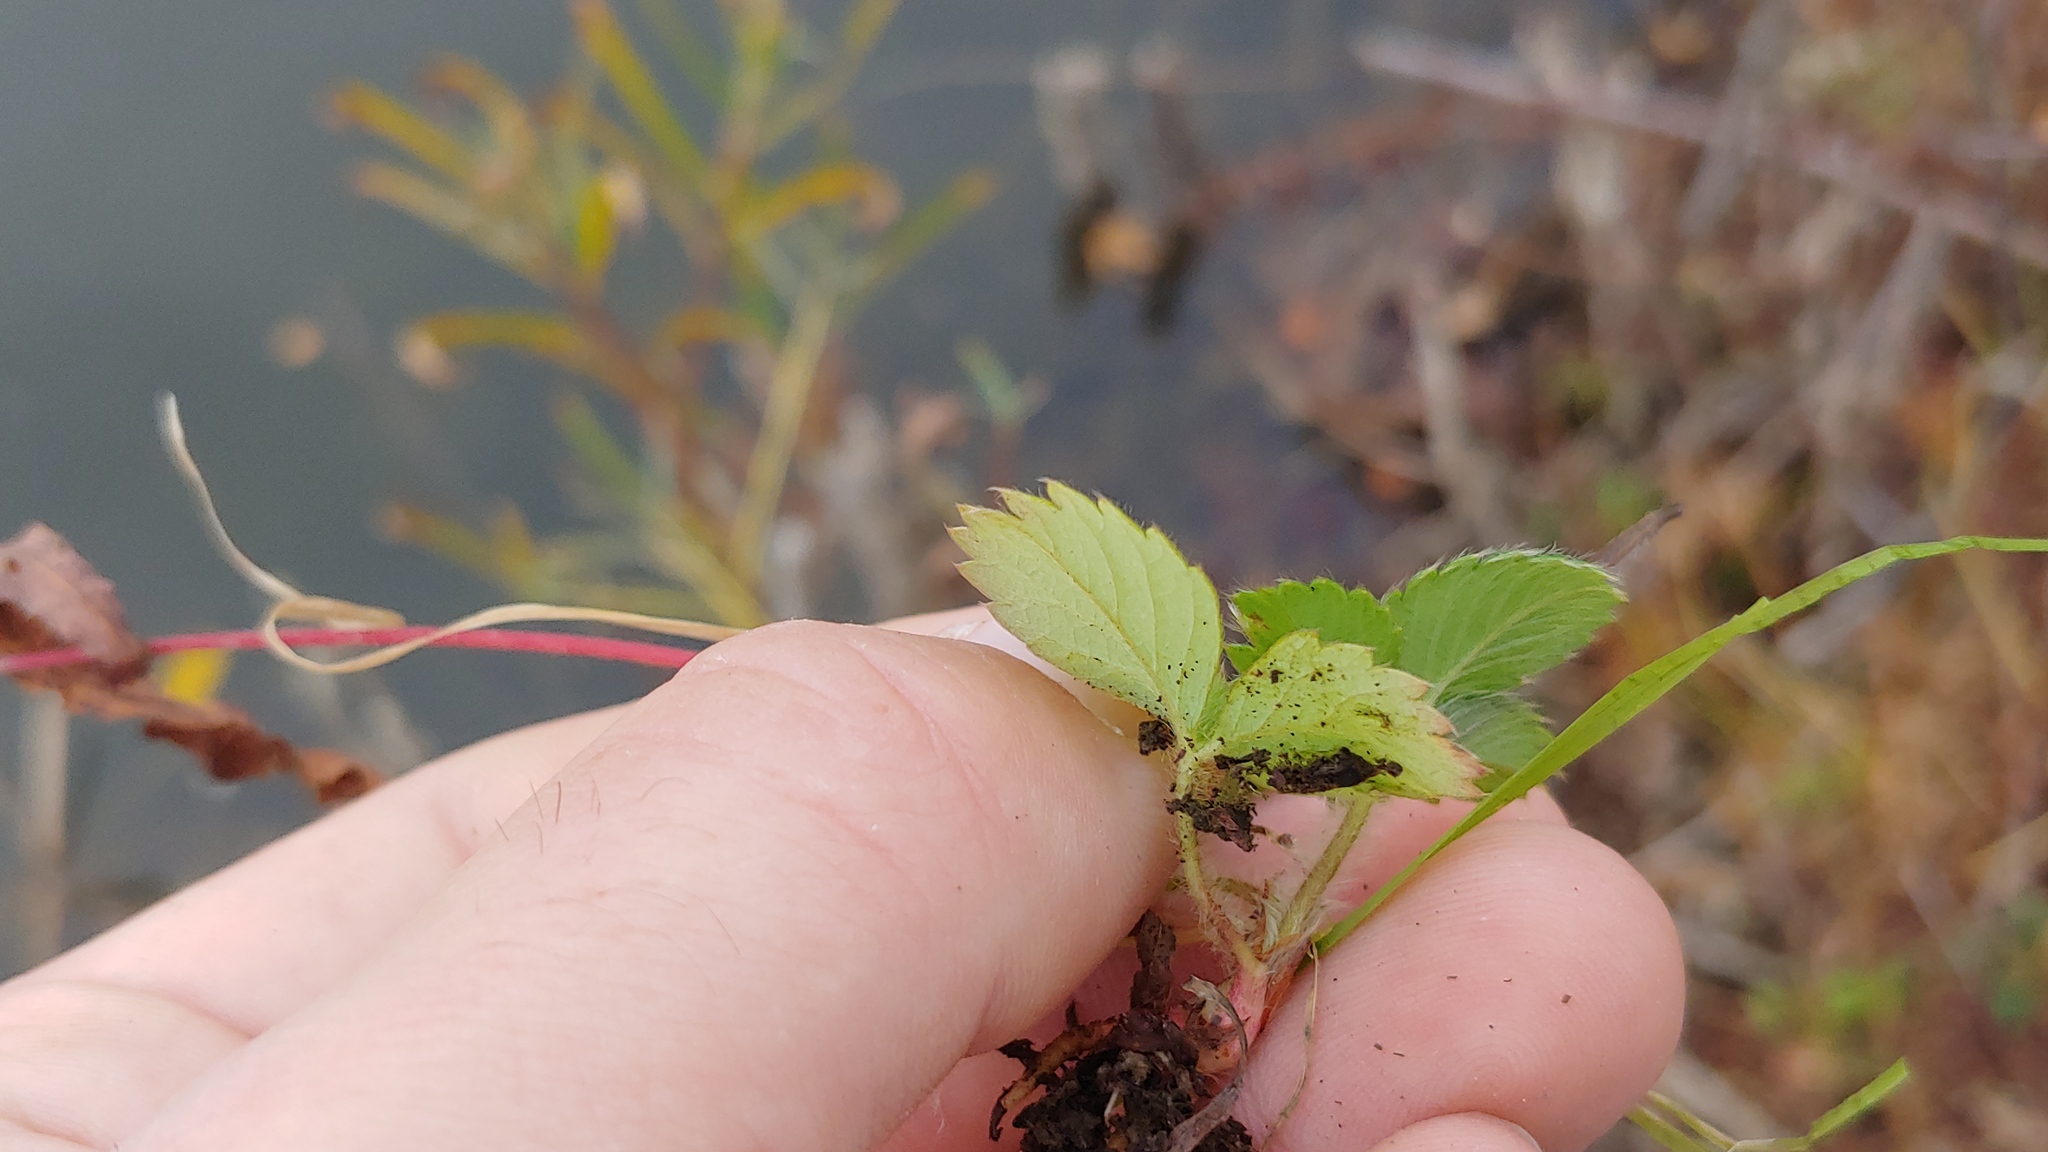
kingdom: Plantae
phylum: Tracheophyta
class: Magnoliopsida
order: Rosales
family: Rosaceae
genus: Fragaria
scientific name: Fragaria virginiana
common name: Thickleaved wild strawberry
